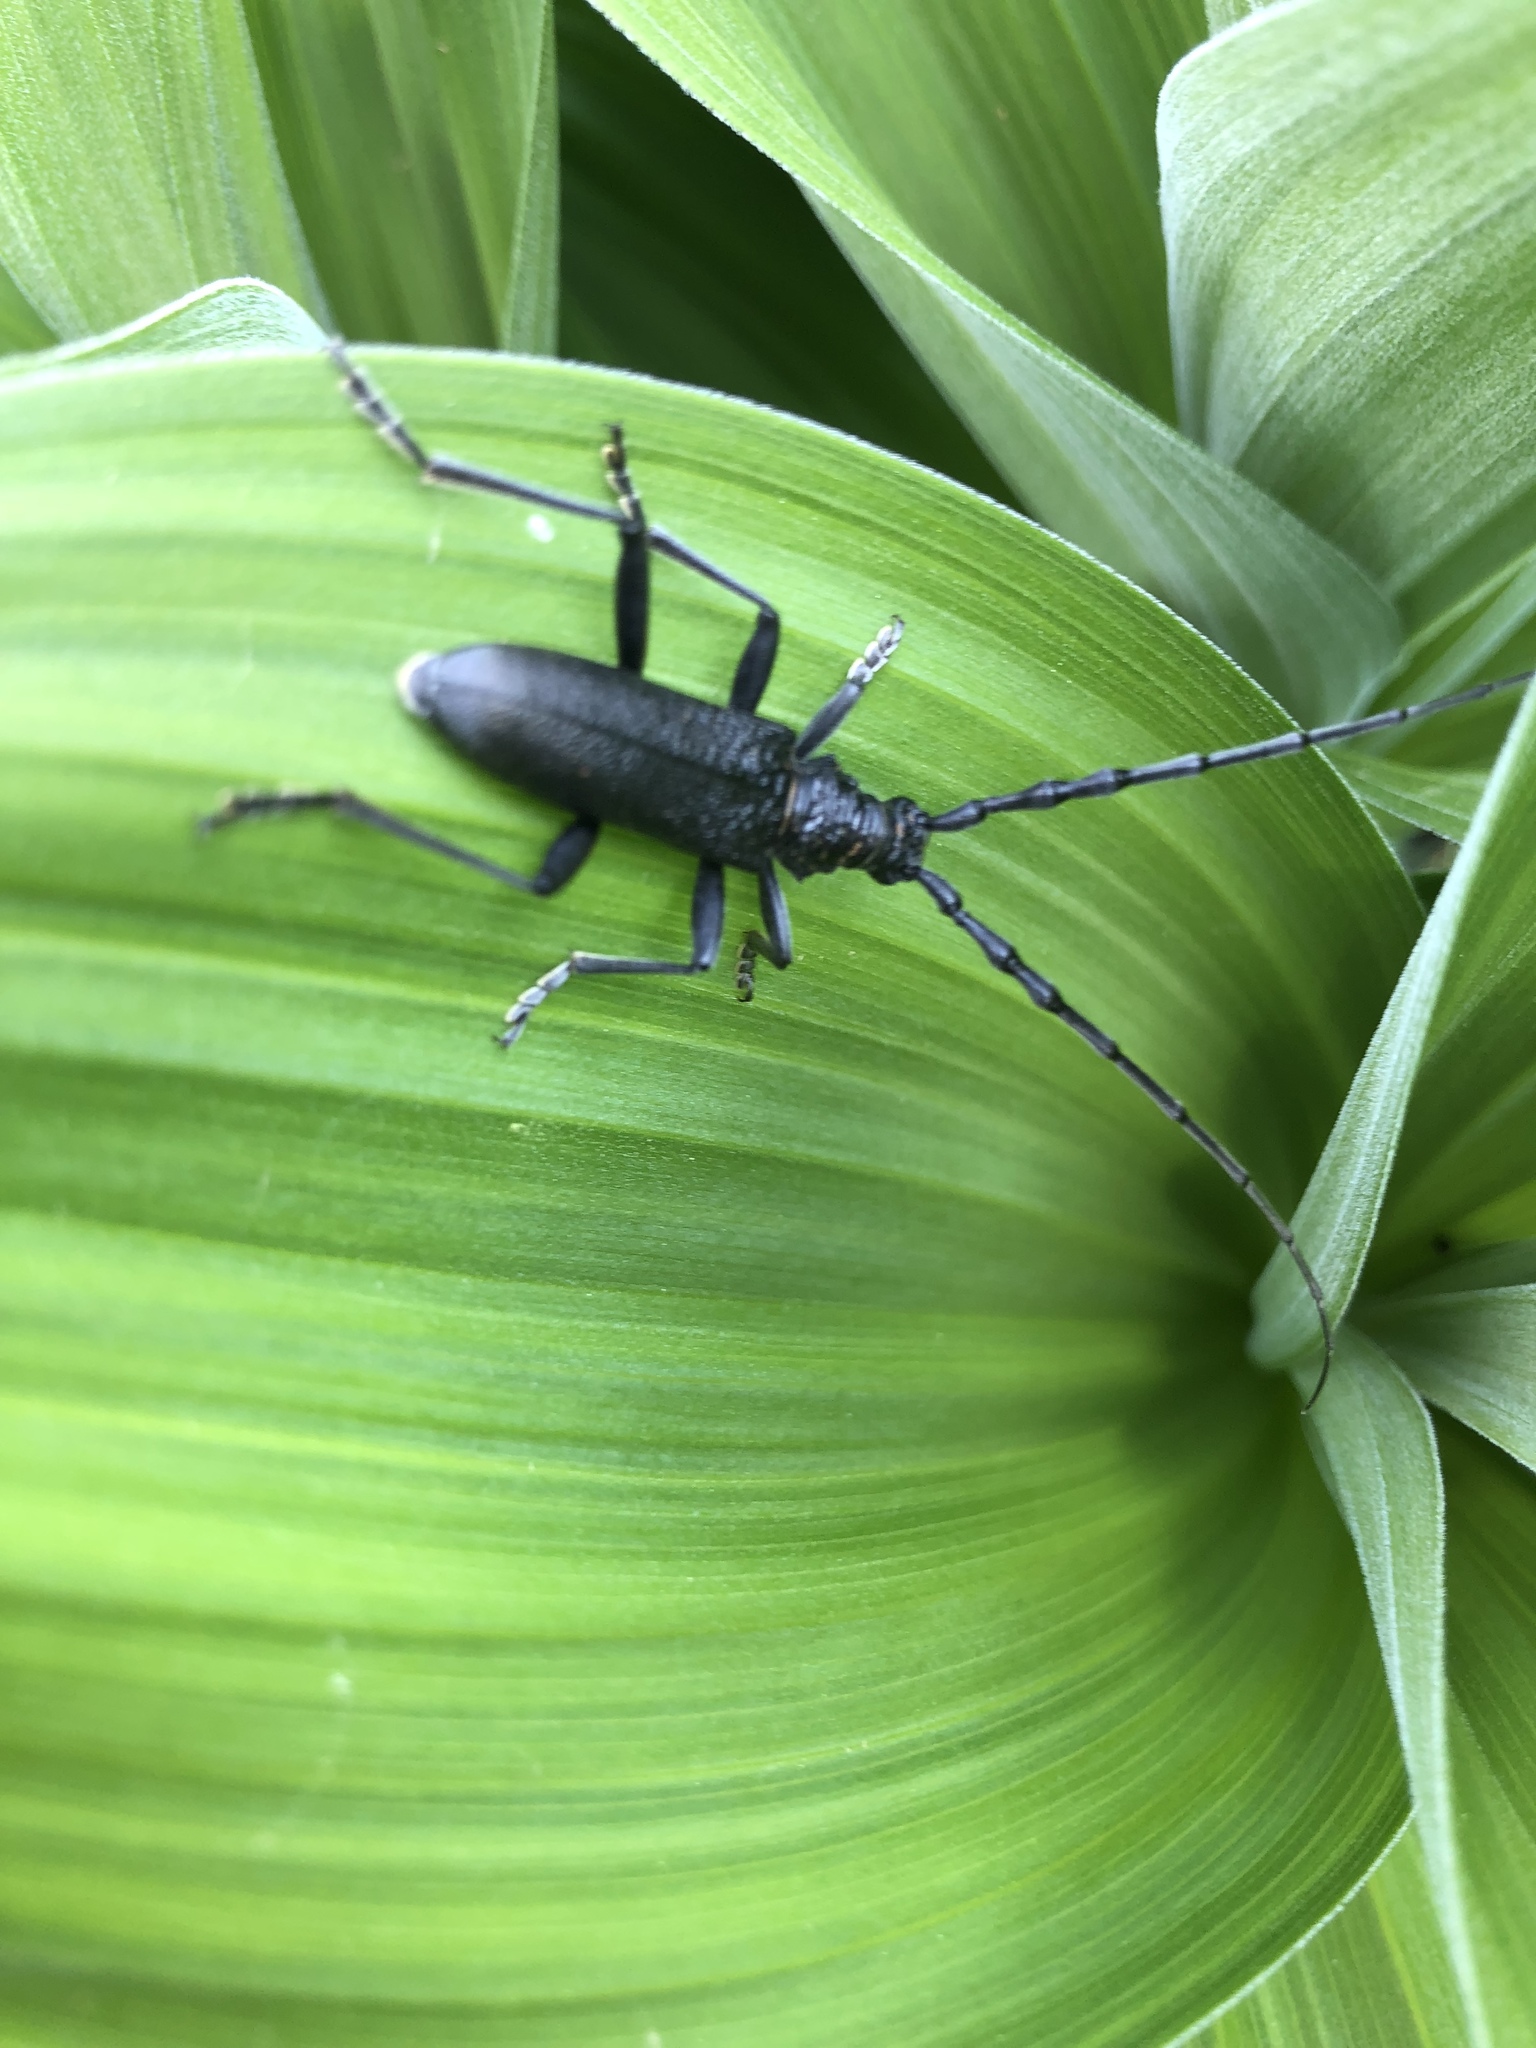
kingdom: Animalia
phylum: Arthropoda
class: Insecta
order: Coleoptera
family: Cerambycidae
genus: Cerambyx
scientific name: Cerambyx scopolii
